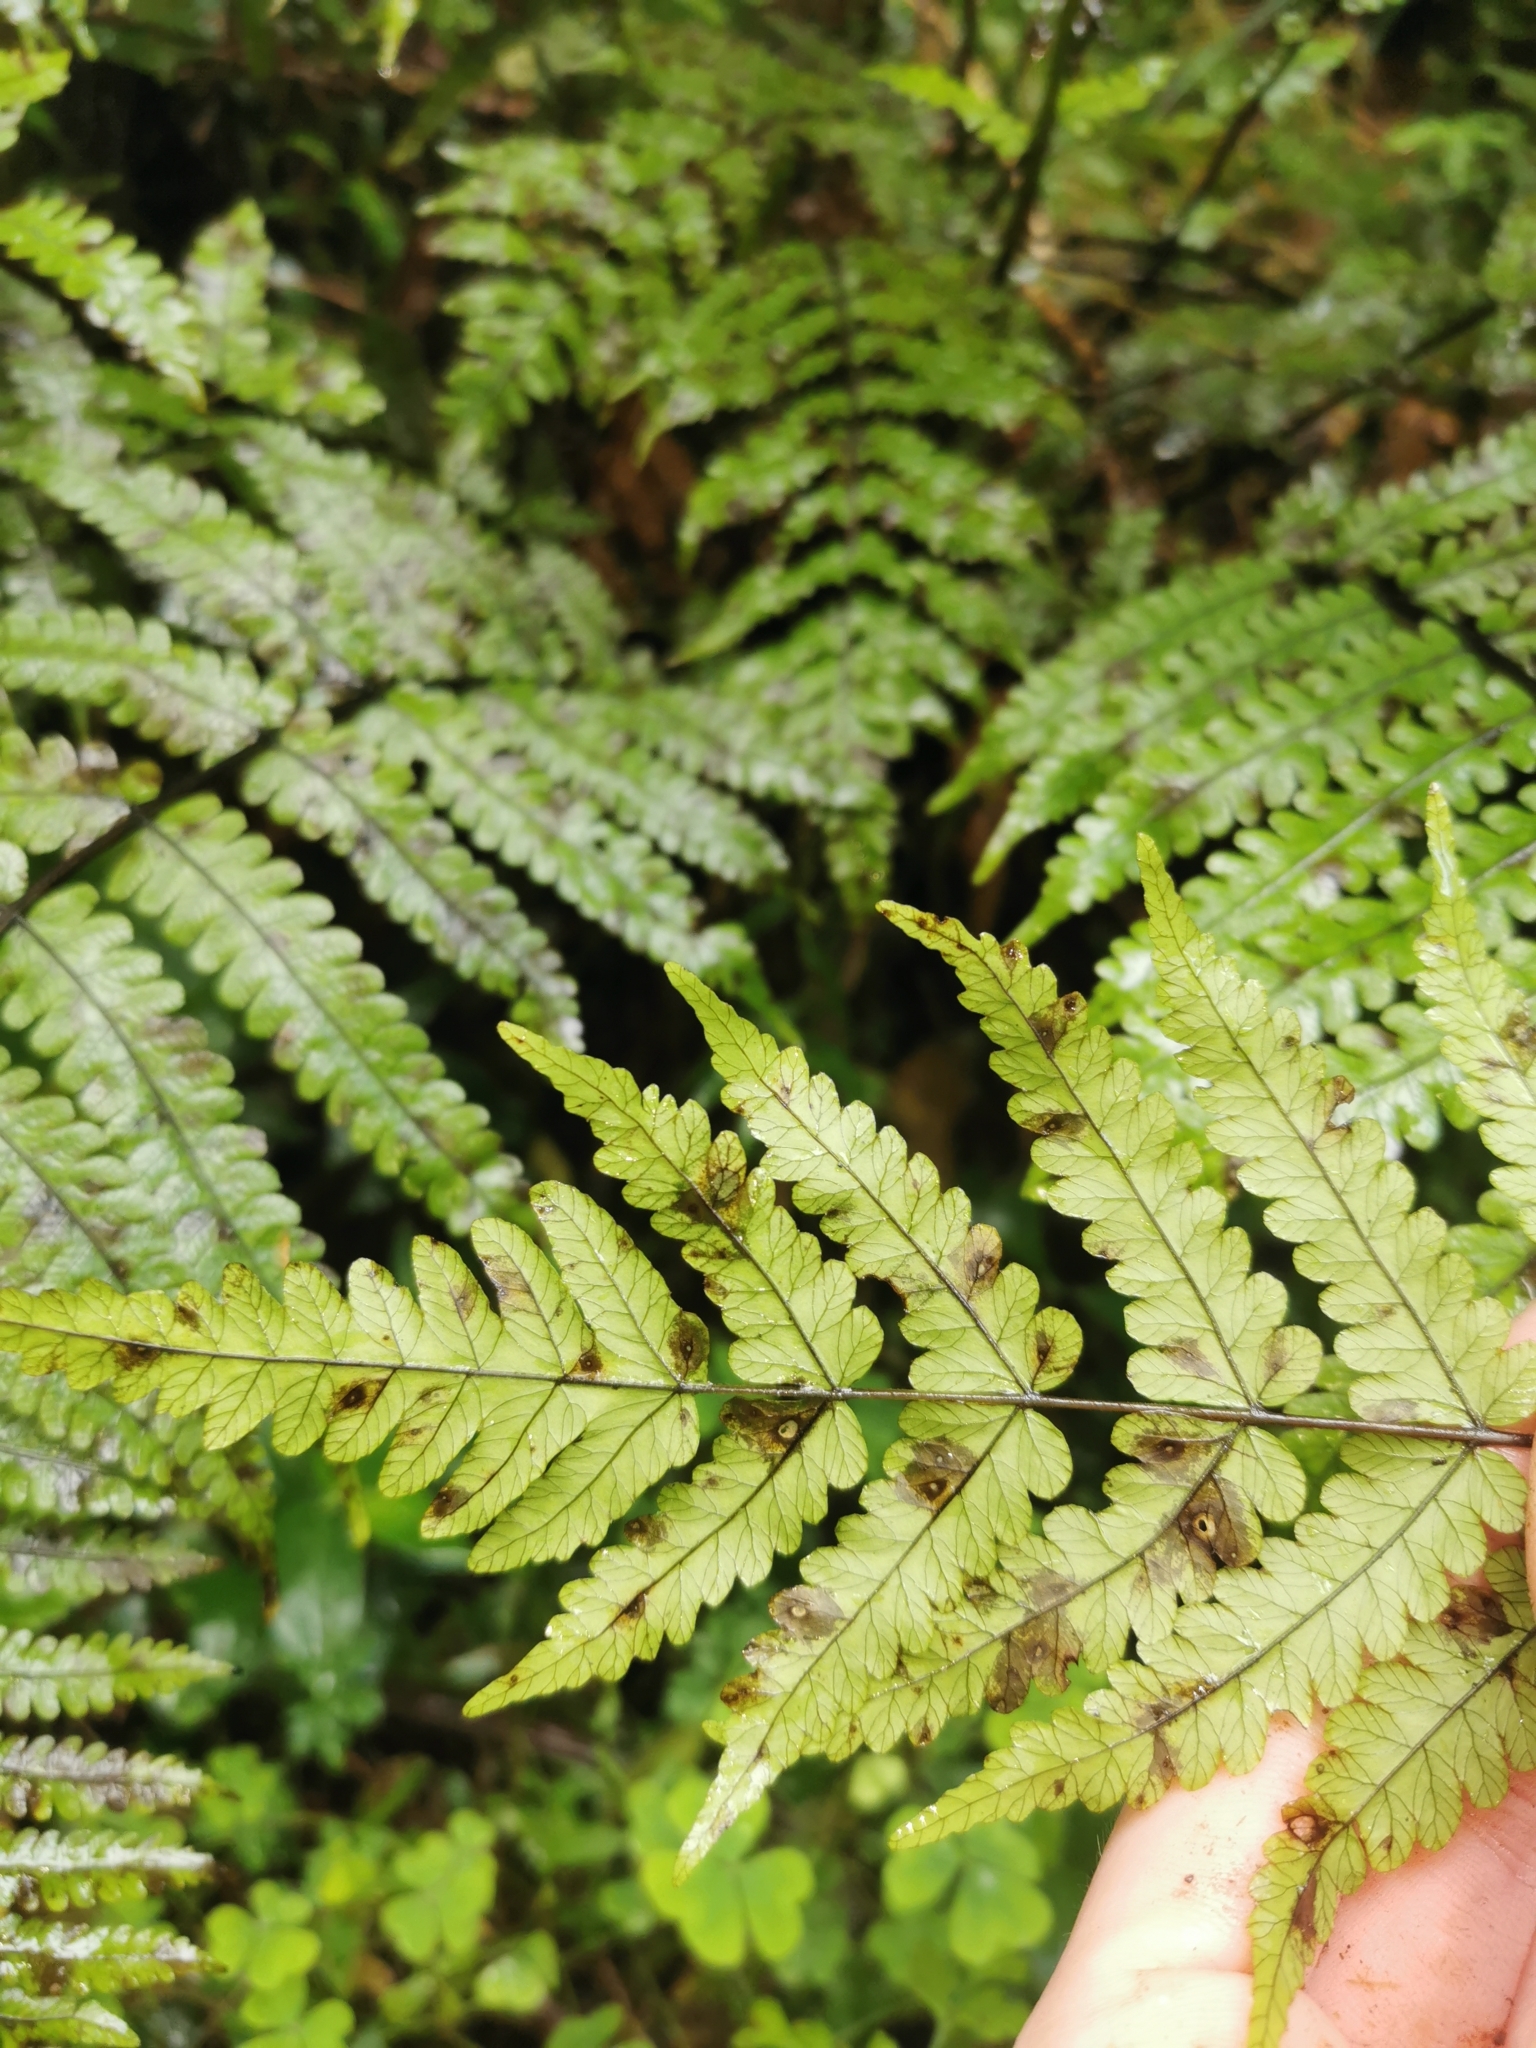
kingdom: Plantae
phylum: Tracheophyta
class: Polypodiopsida
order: Polypodiales
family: Thelypteridaceae
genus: Pakau
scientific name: Pakau pennigera
